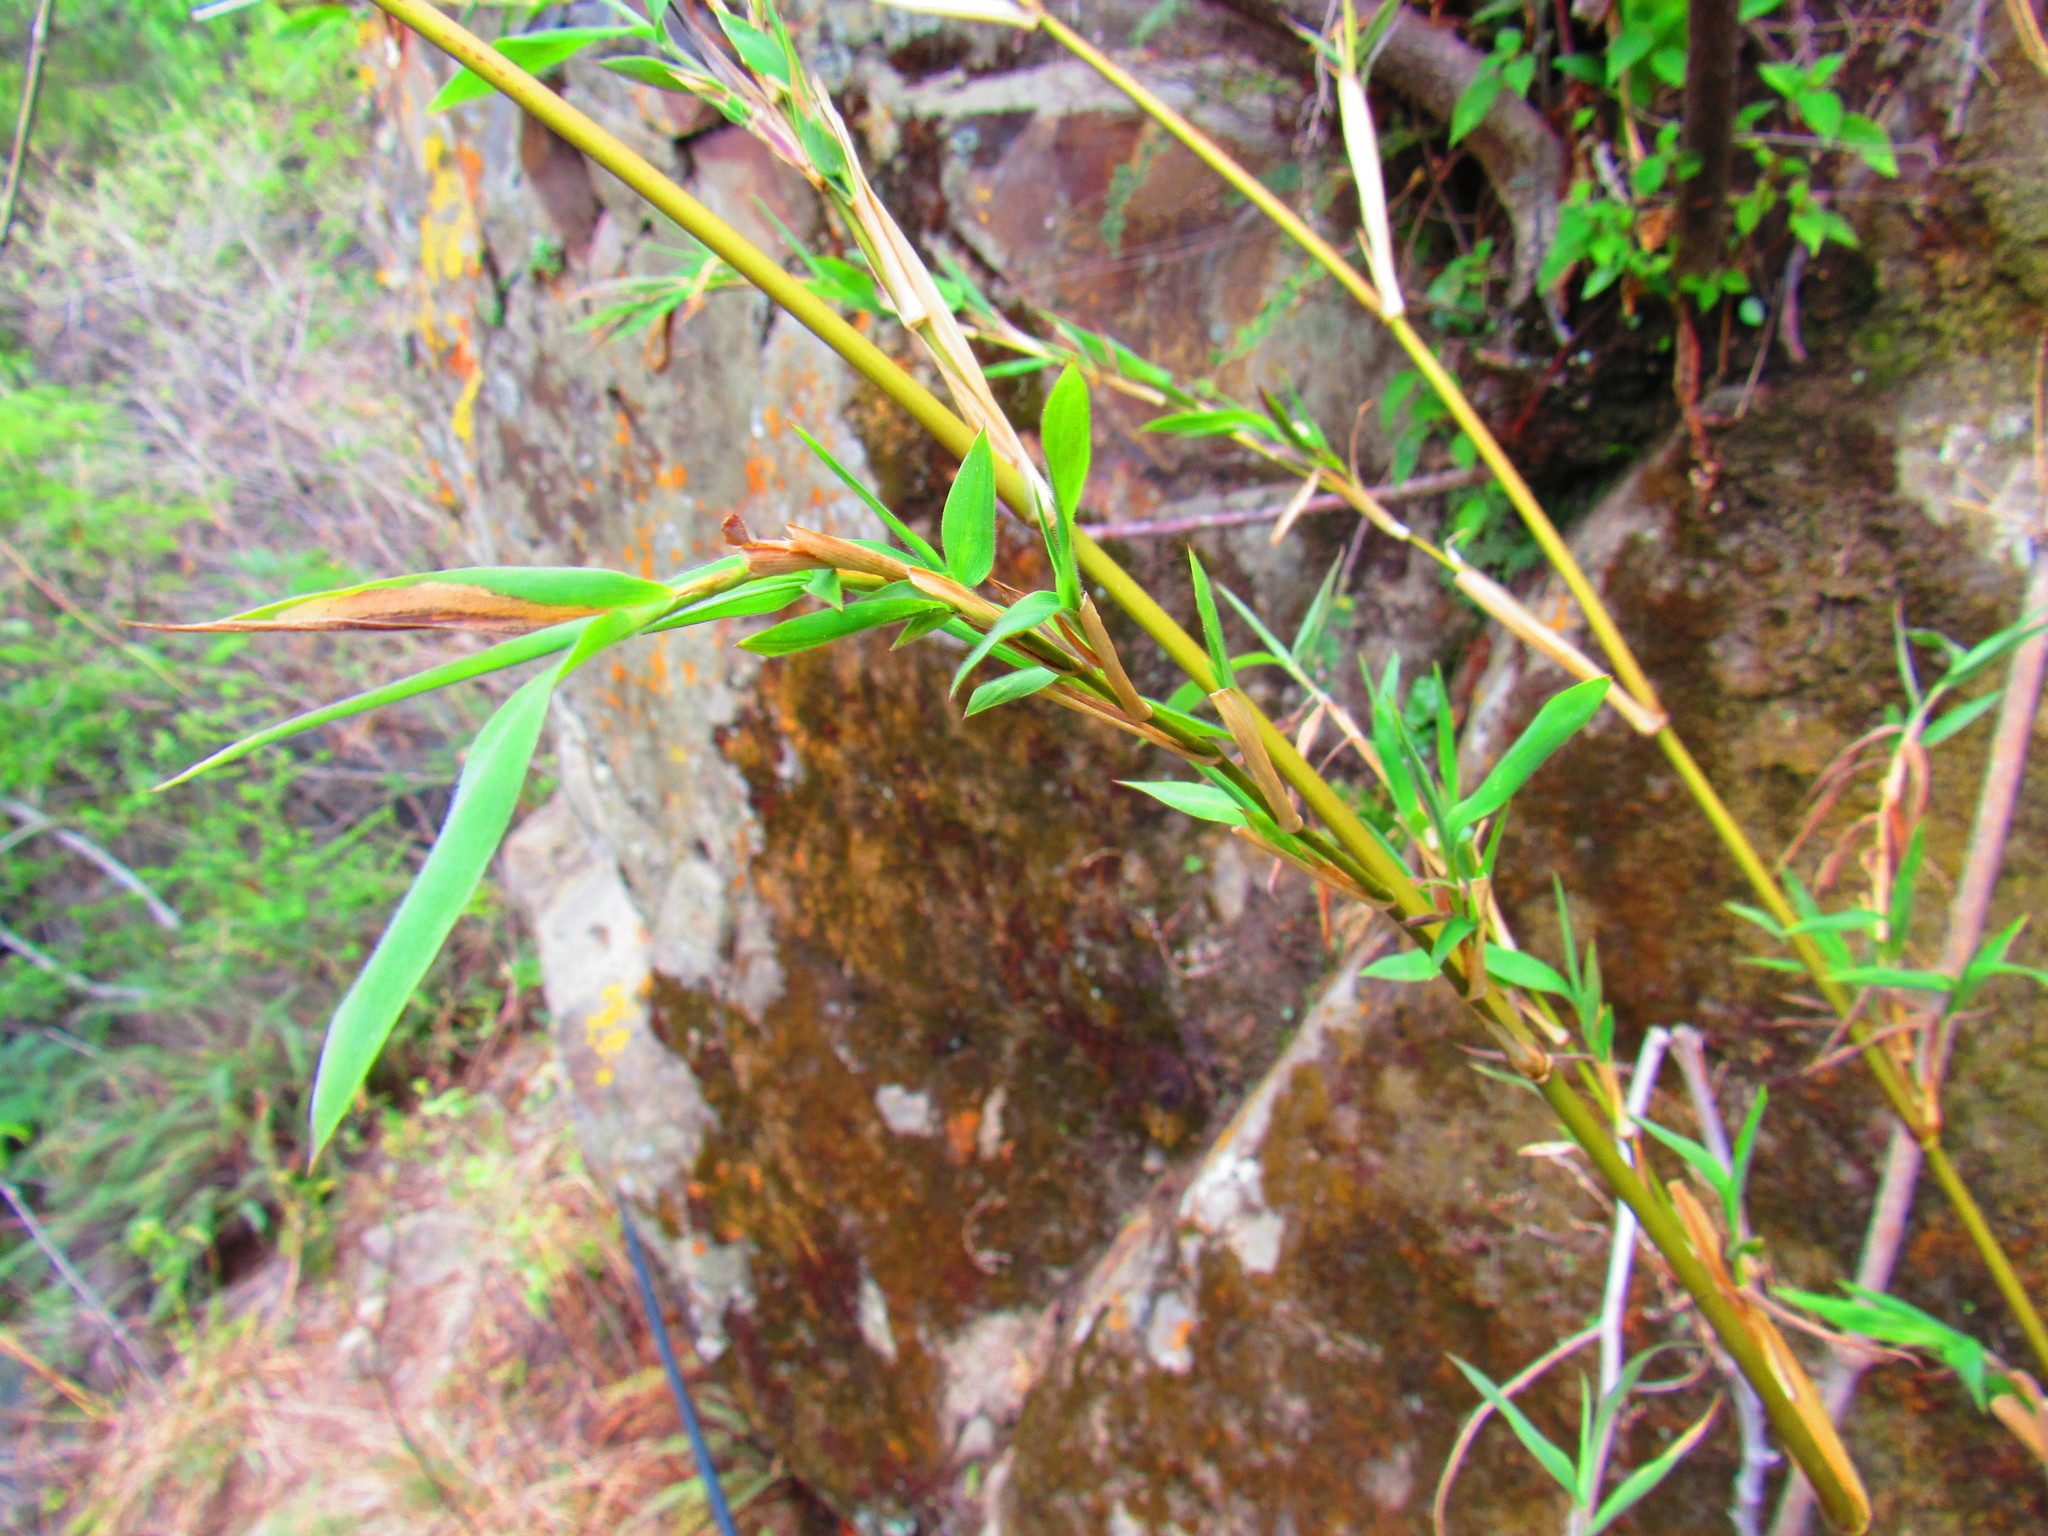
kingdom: Plantae
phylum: Tracheophyta
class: Liliopsida
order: Poales
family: Poaceae
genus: Lasiacis
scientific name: Lasiacis ruscifolia
